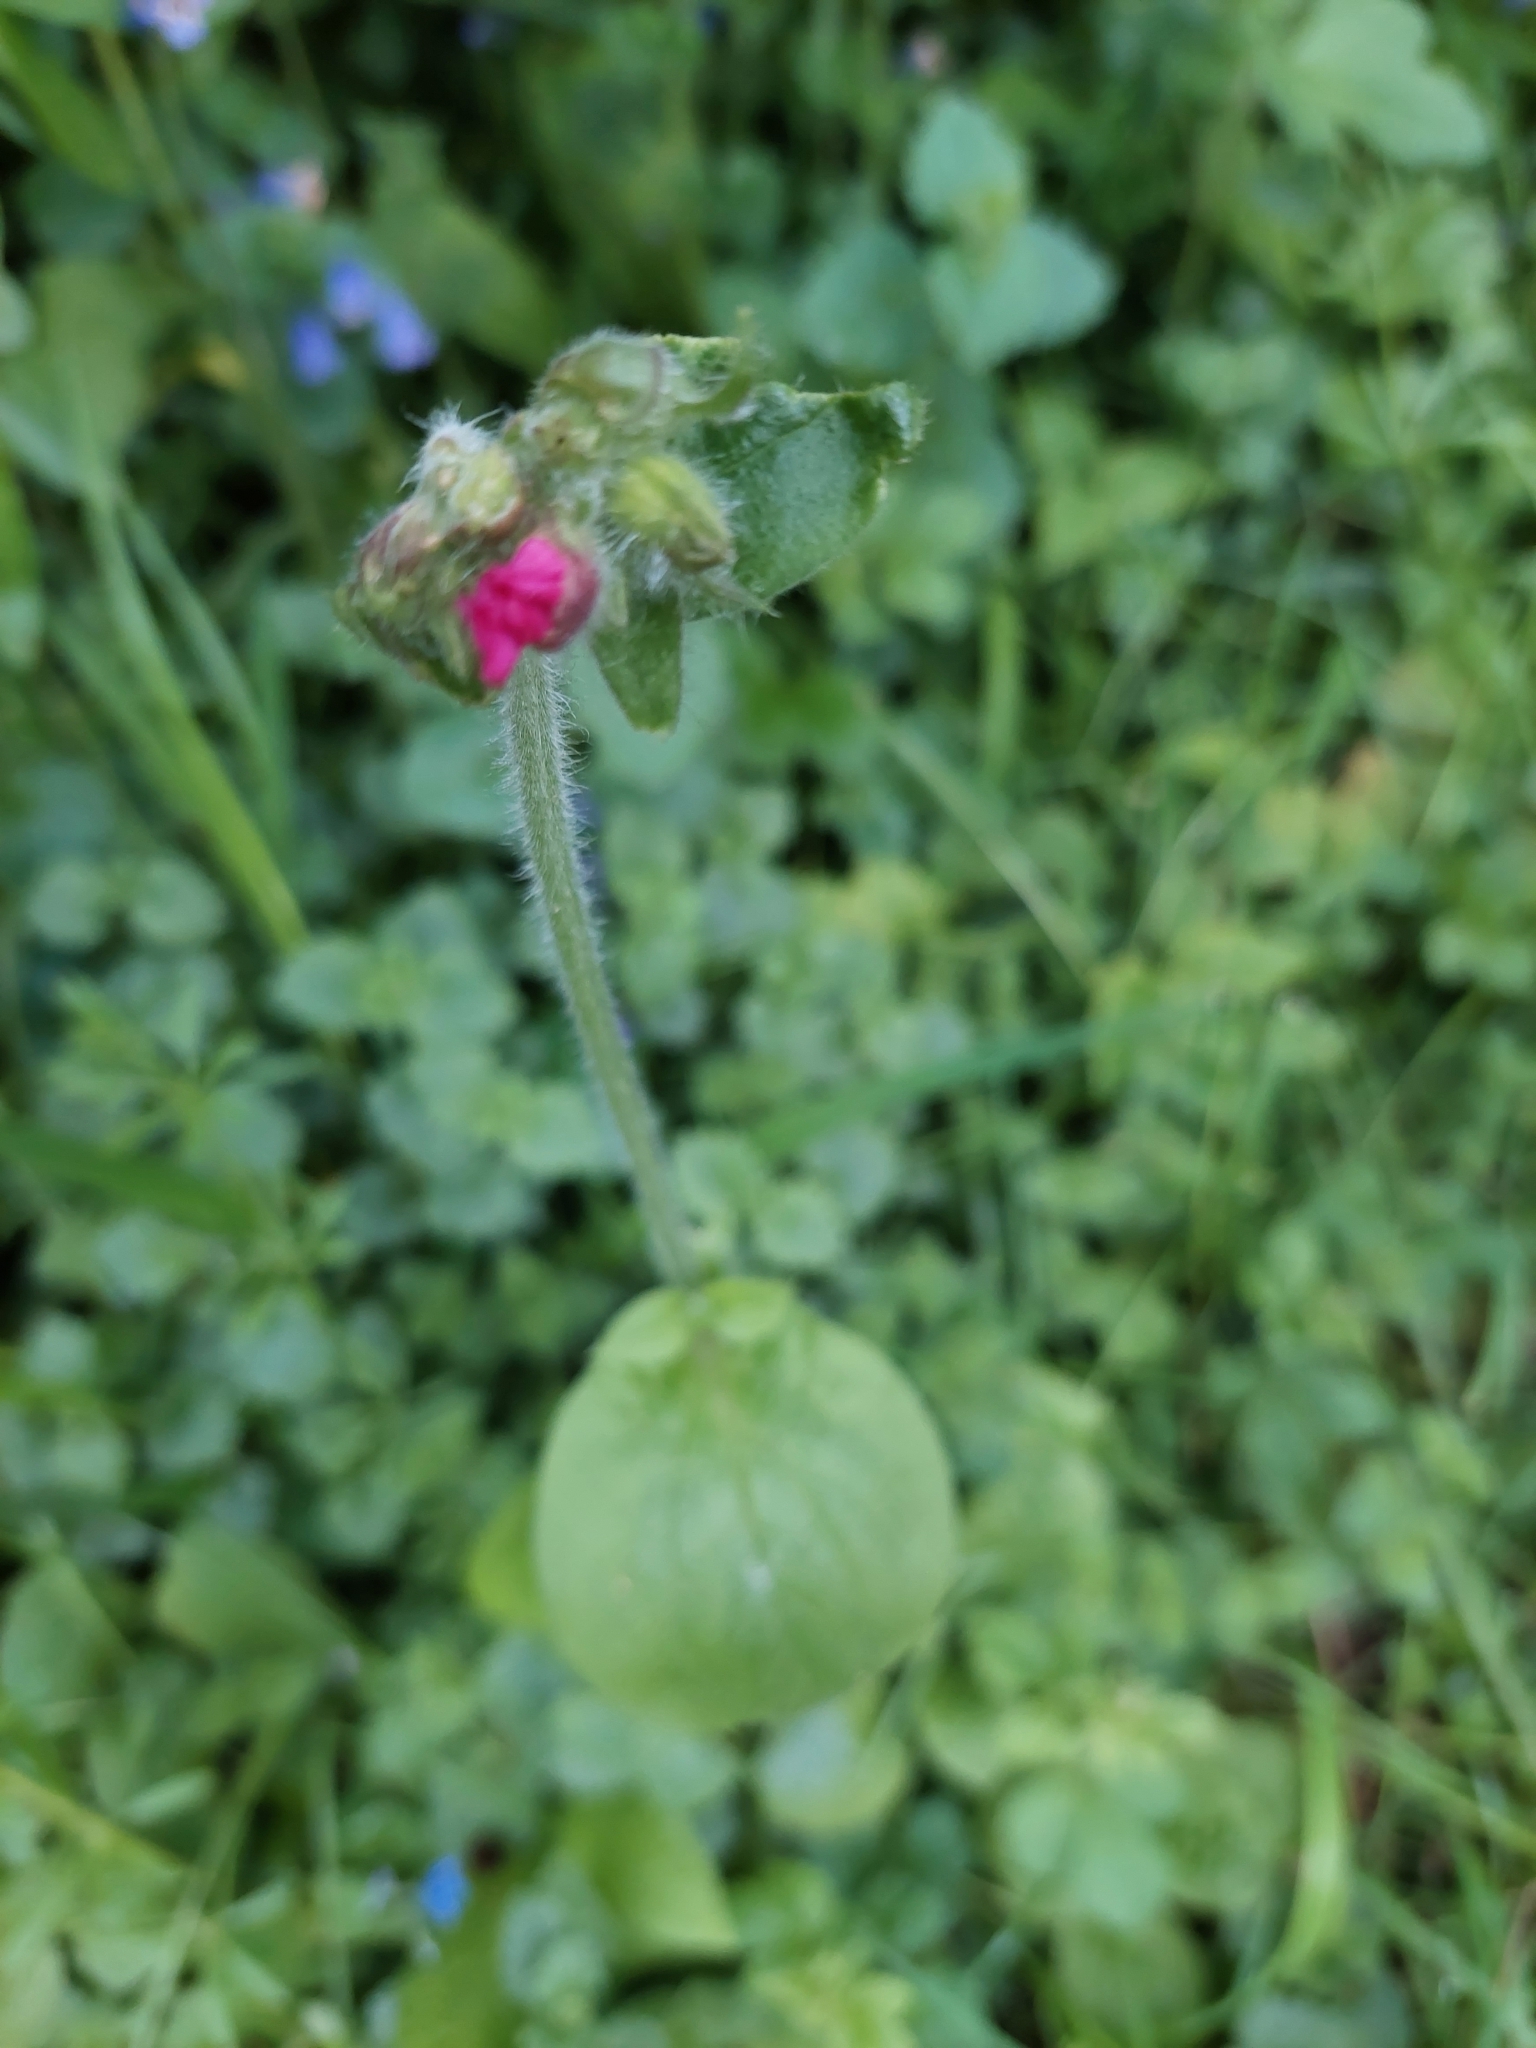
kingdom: Plantae
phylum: Tracheophyta
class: Magnoliopsida
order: Caryophyllales
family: Caryophyllaceae
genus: Silene
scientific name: Silene dioica
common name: Red campion
